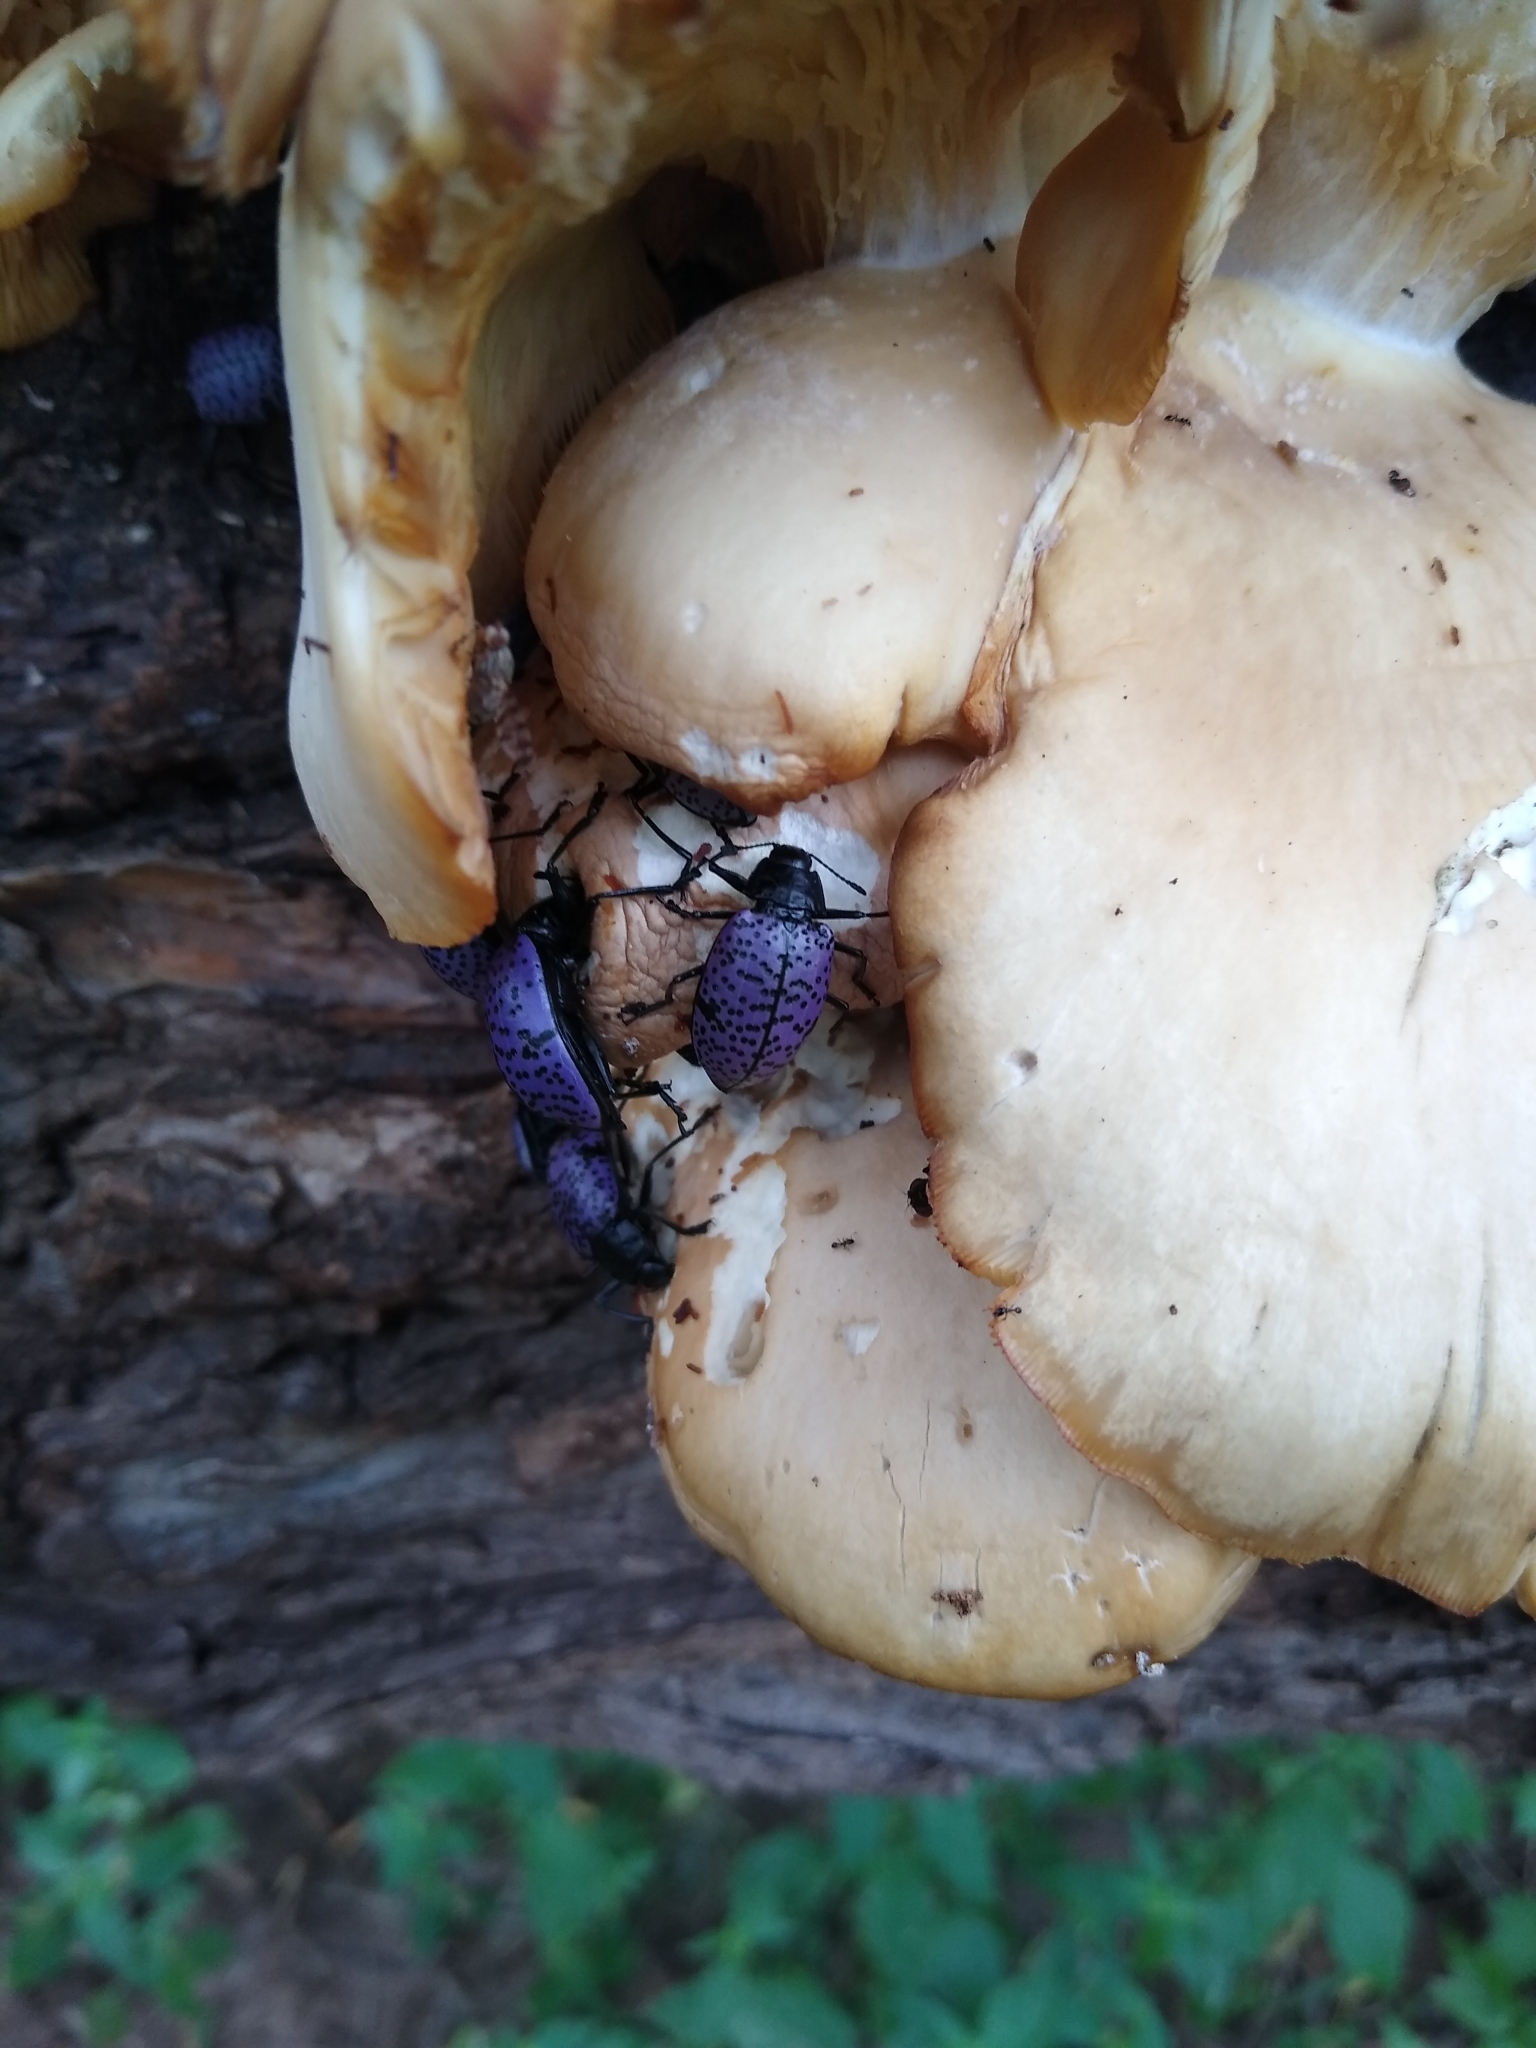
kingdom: Animalia
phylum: Arthropoda
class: Insecta
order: Coleoptera
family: Erotylidae
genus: Gibbifer
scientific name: Gibbifer californicus
